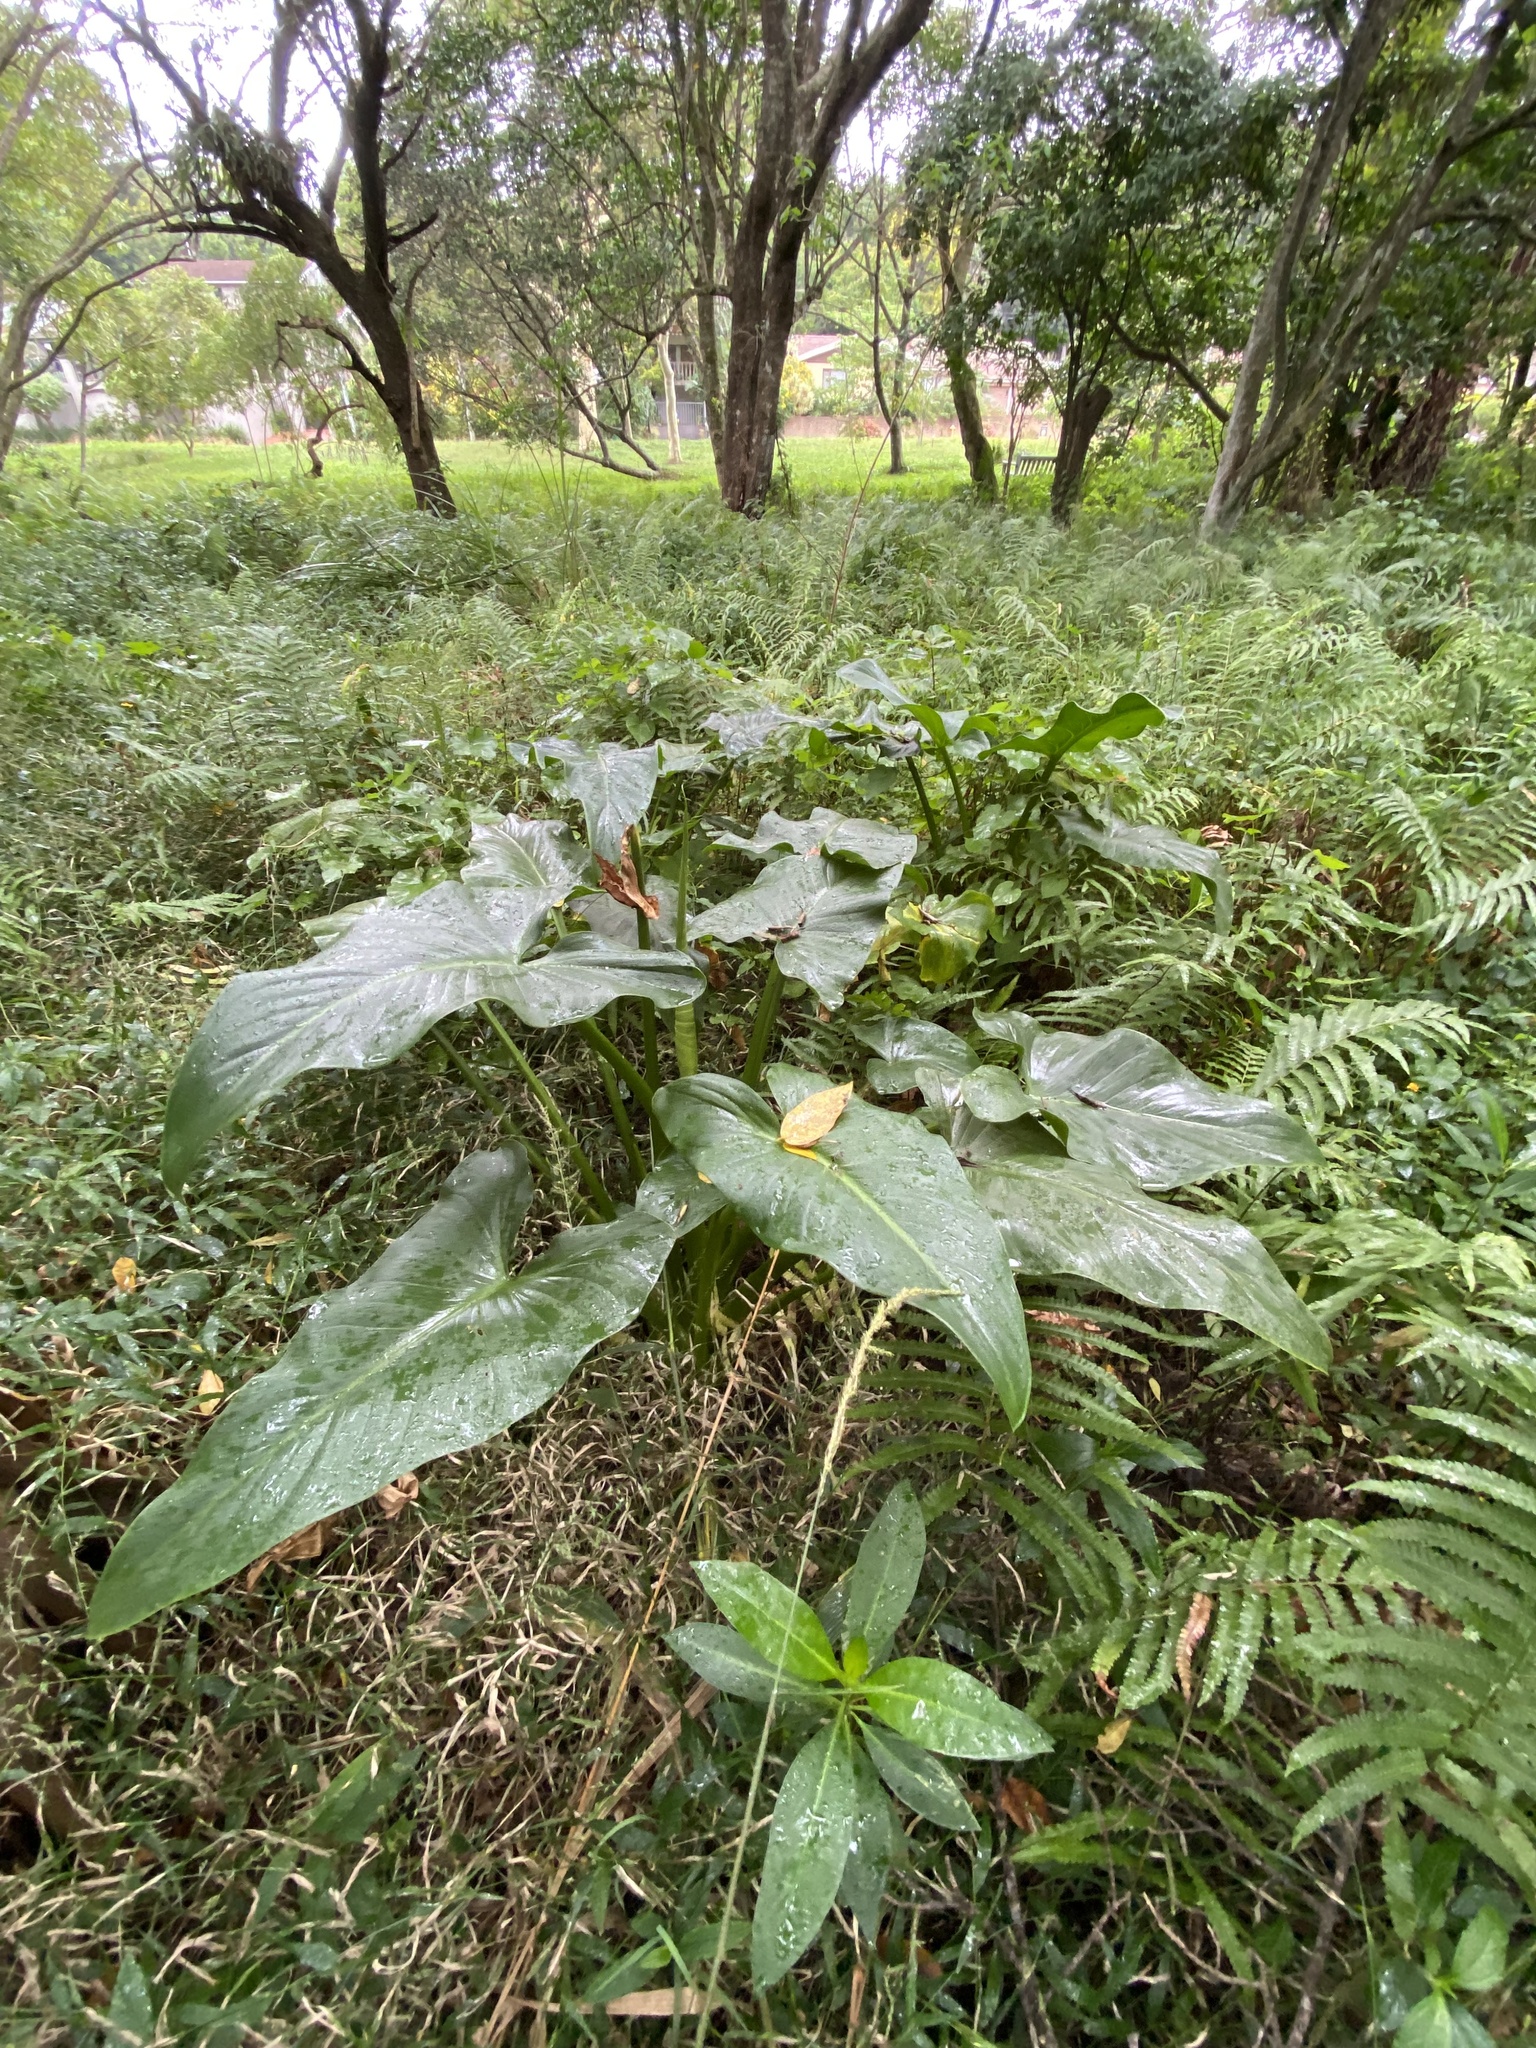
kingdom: Plantae
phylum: Tracheophyta
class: Liliopsida
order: Alismatales
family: Araceae
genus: Zantedeschia
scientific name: Zantedeschia aethiopica
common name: Altar-lily
